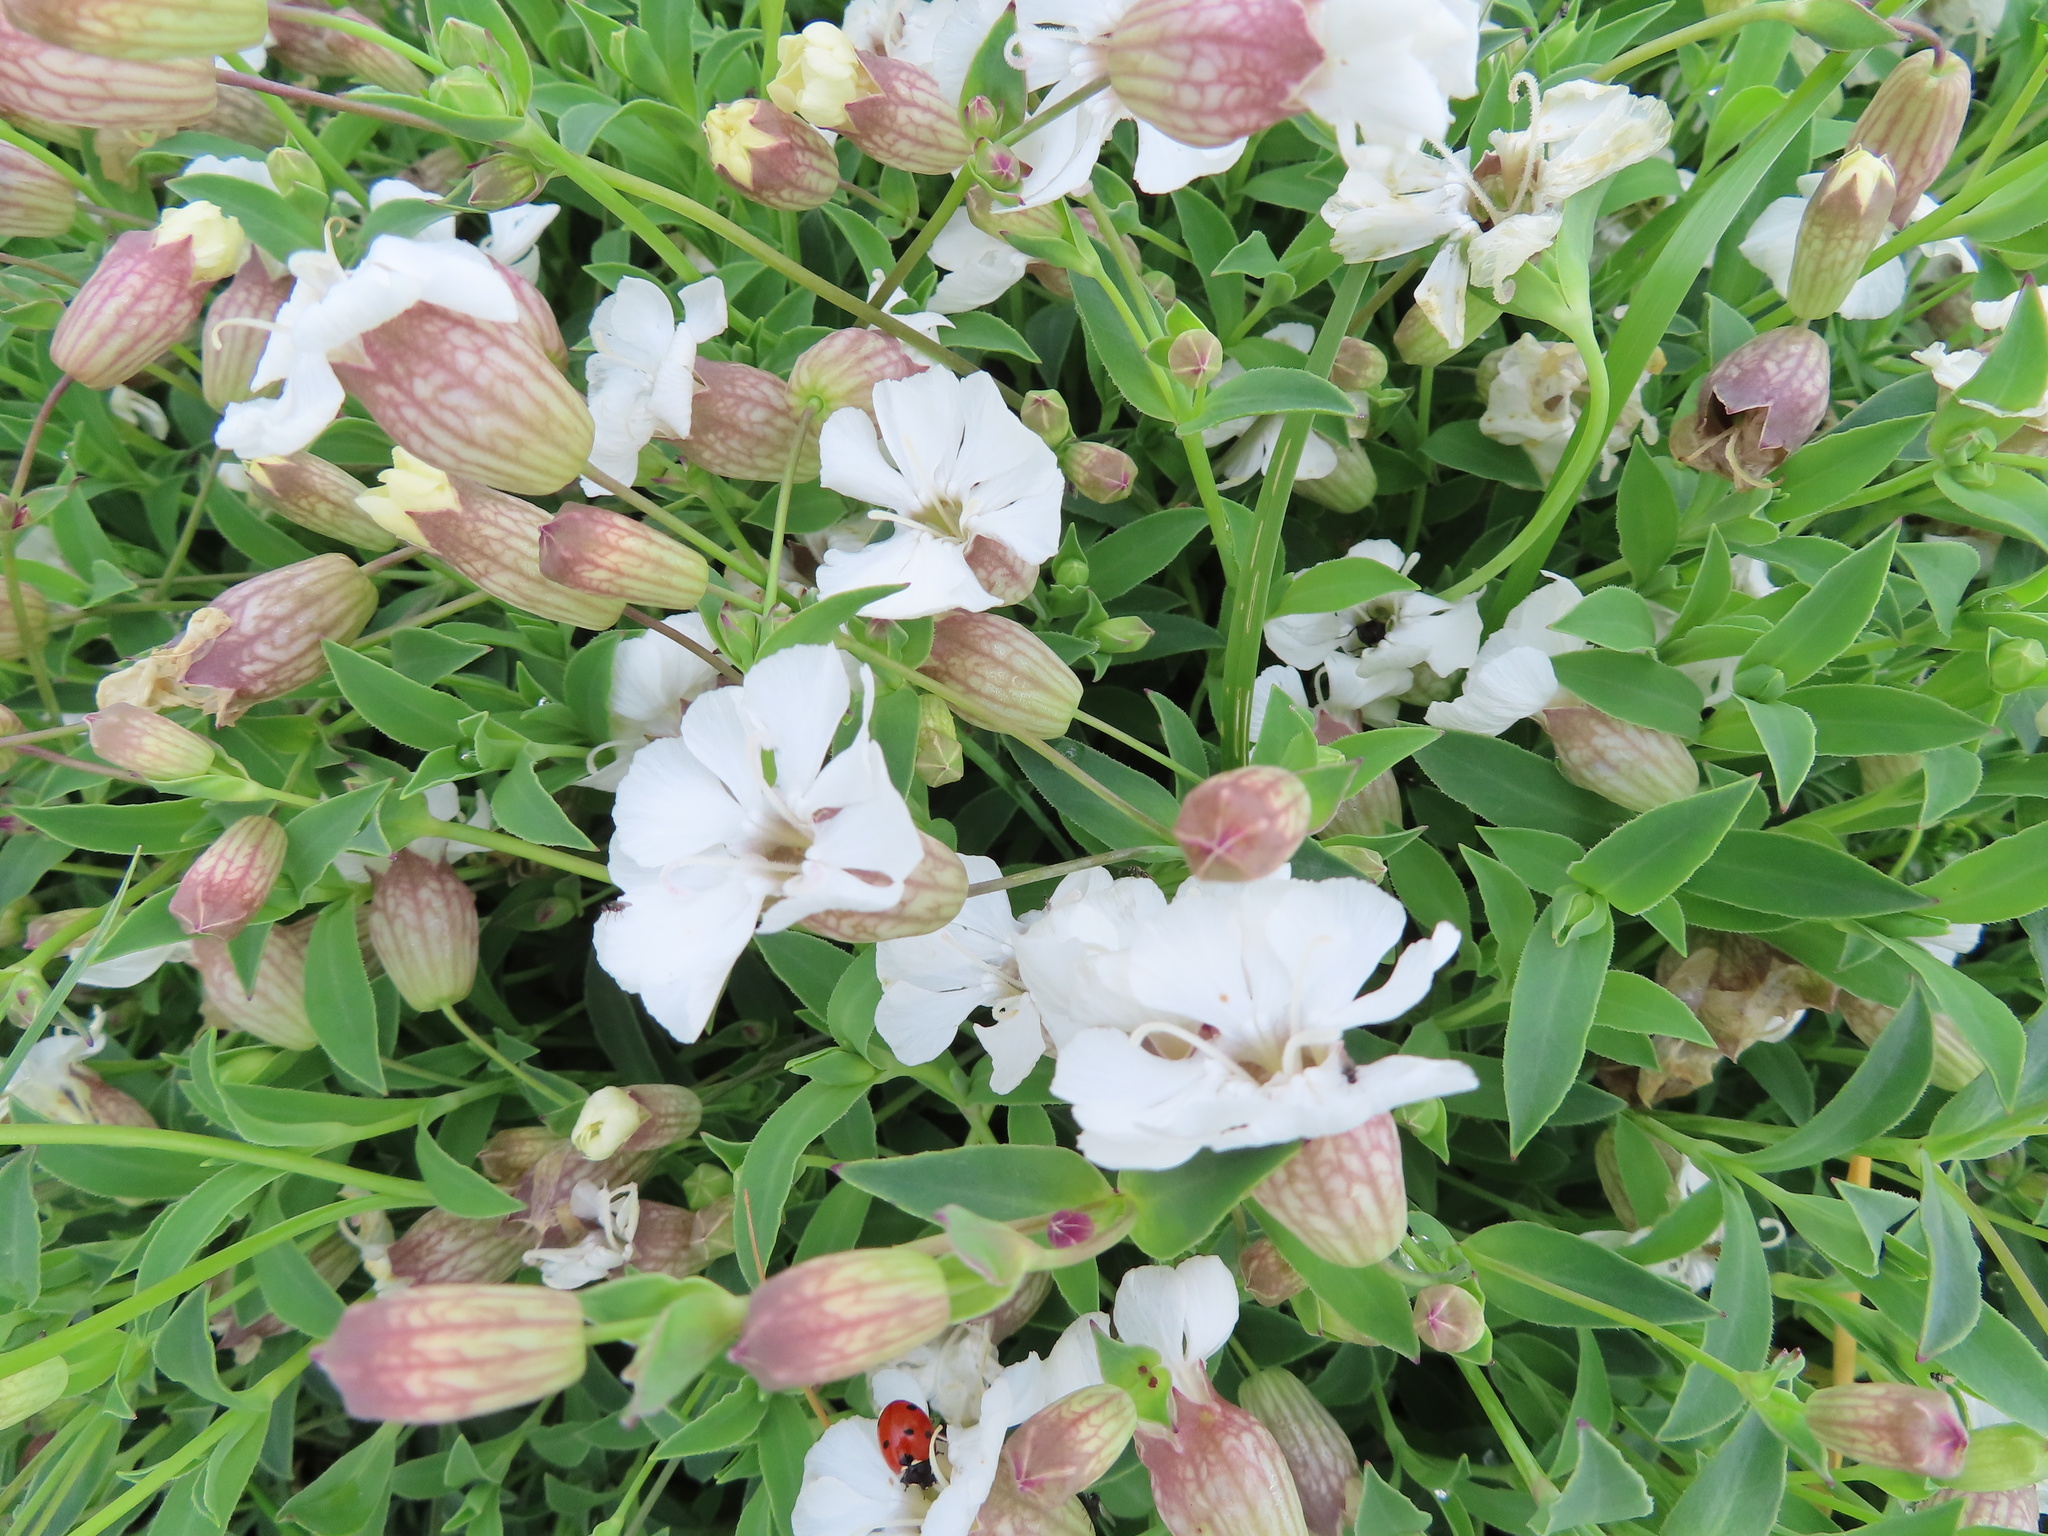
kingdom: Plantae
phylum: Tracheophyta
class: Magnoliopsida
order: Caryophyllales
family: Caryophyllaceae
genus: Silene
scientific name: Silene uniflora
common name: Sea campion
